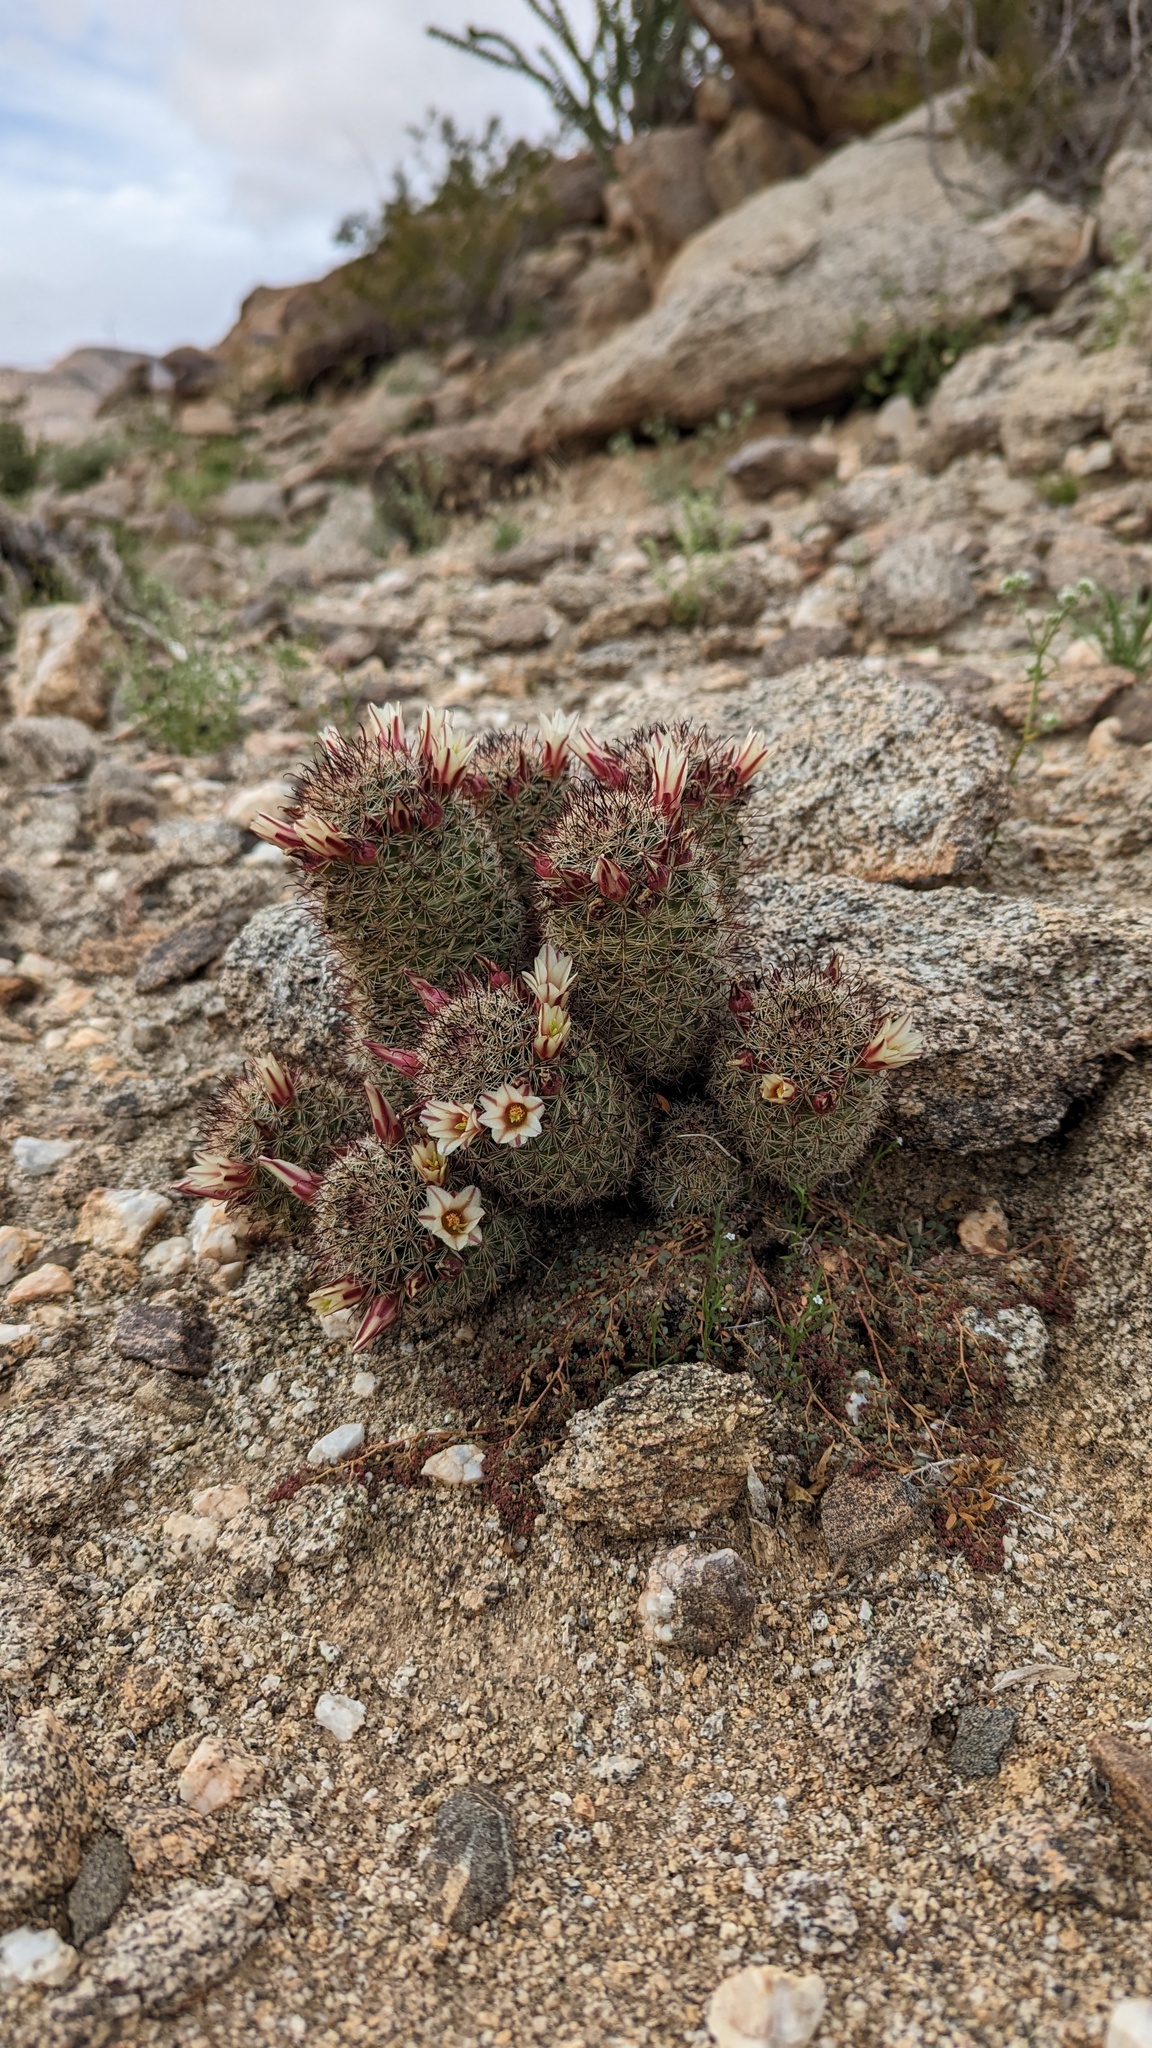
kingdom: Plantae
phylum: Tracheophyta
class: Magnoliopsida
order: Caryophyllales
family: Cactaceae
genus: Cochemiea
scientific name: Cochemiea dioica
